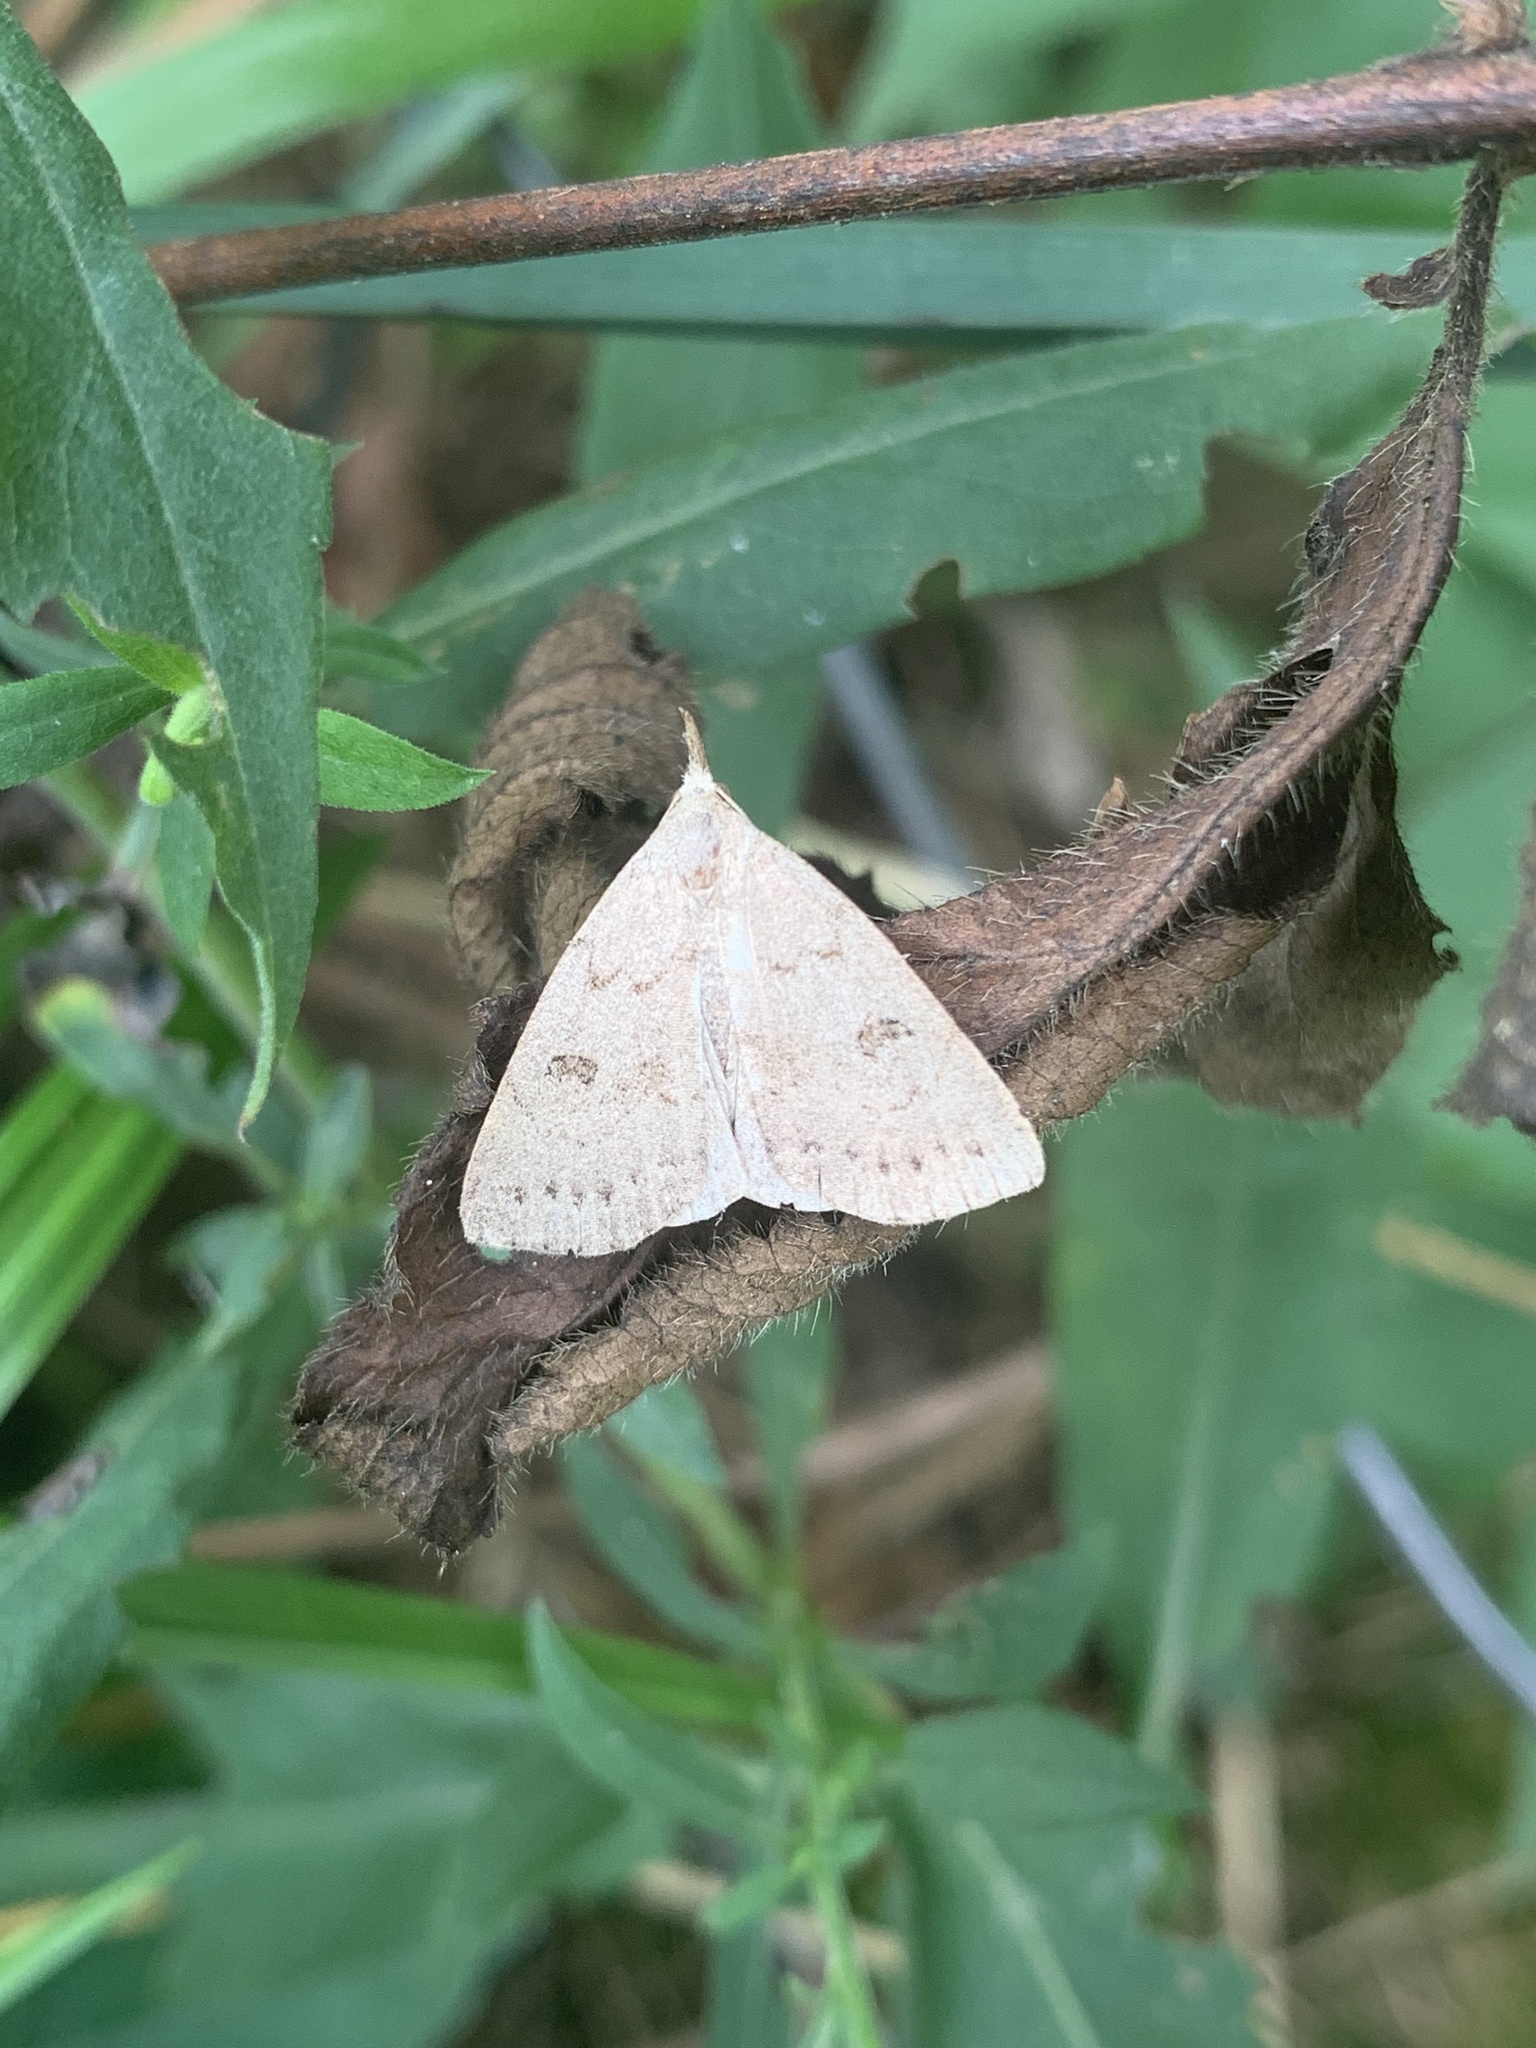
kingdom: Animalia
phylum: Arthropoda
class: Insecta
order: Lepidoptera
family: Erebidae
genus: Macrochilo
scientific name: Macrochilo morbidalis
